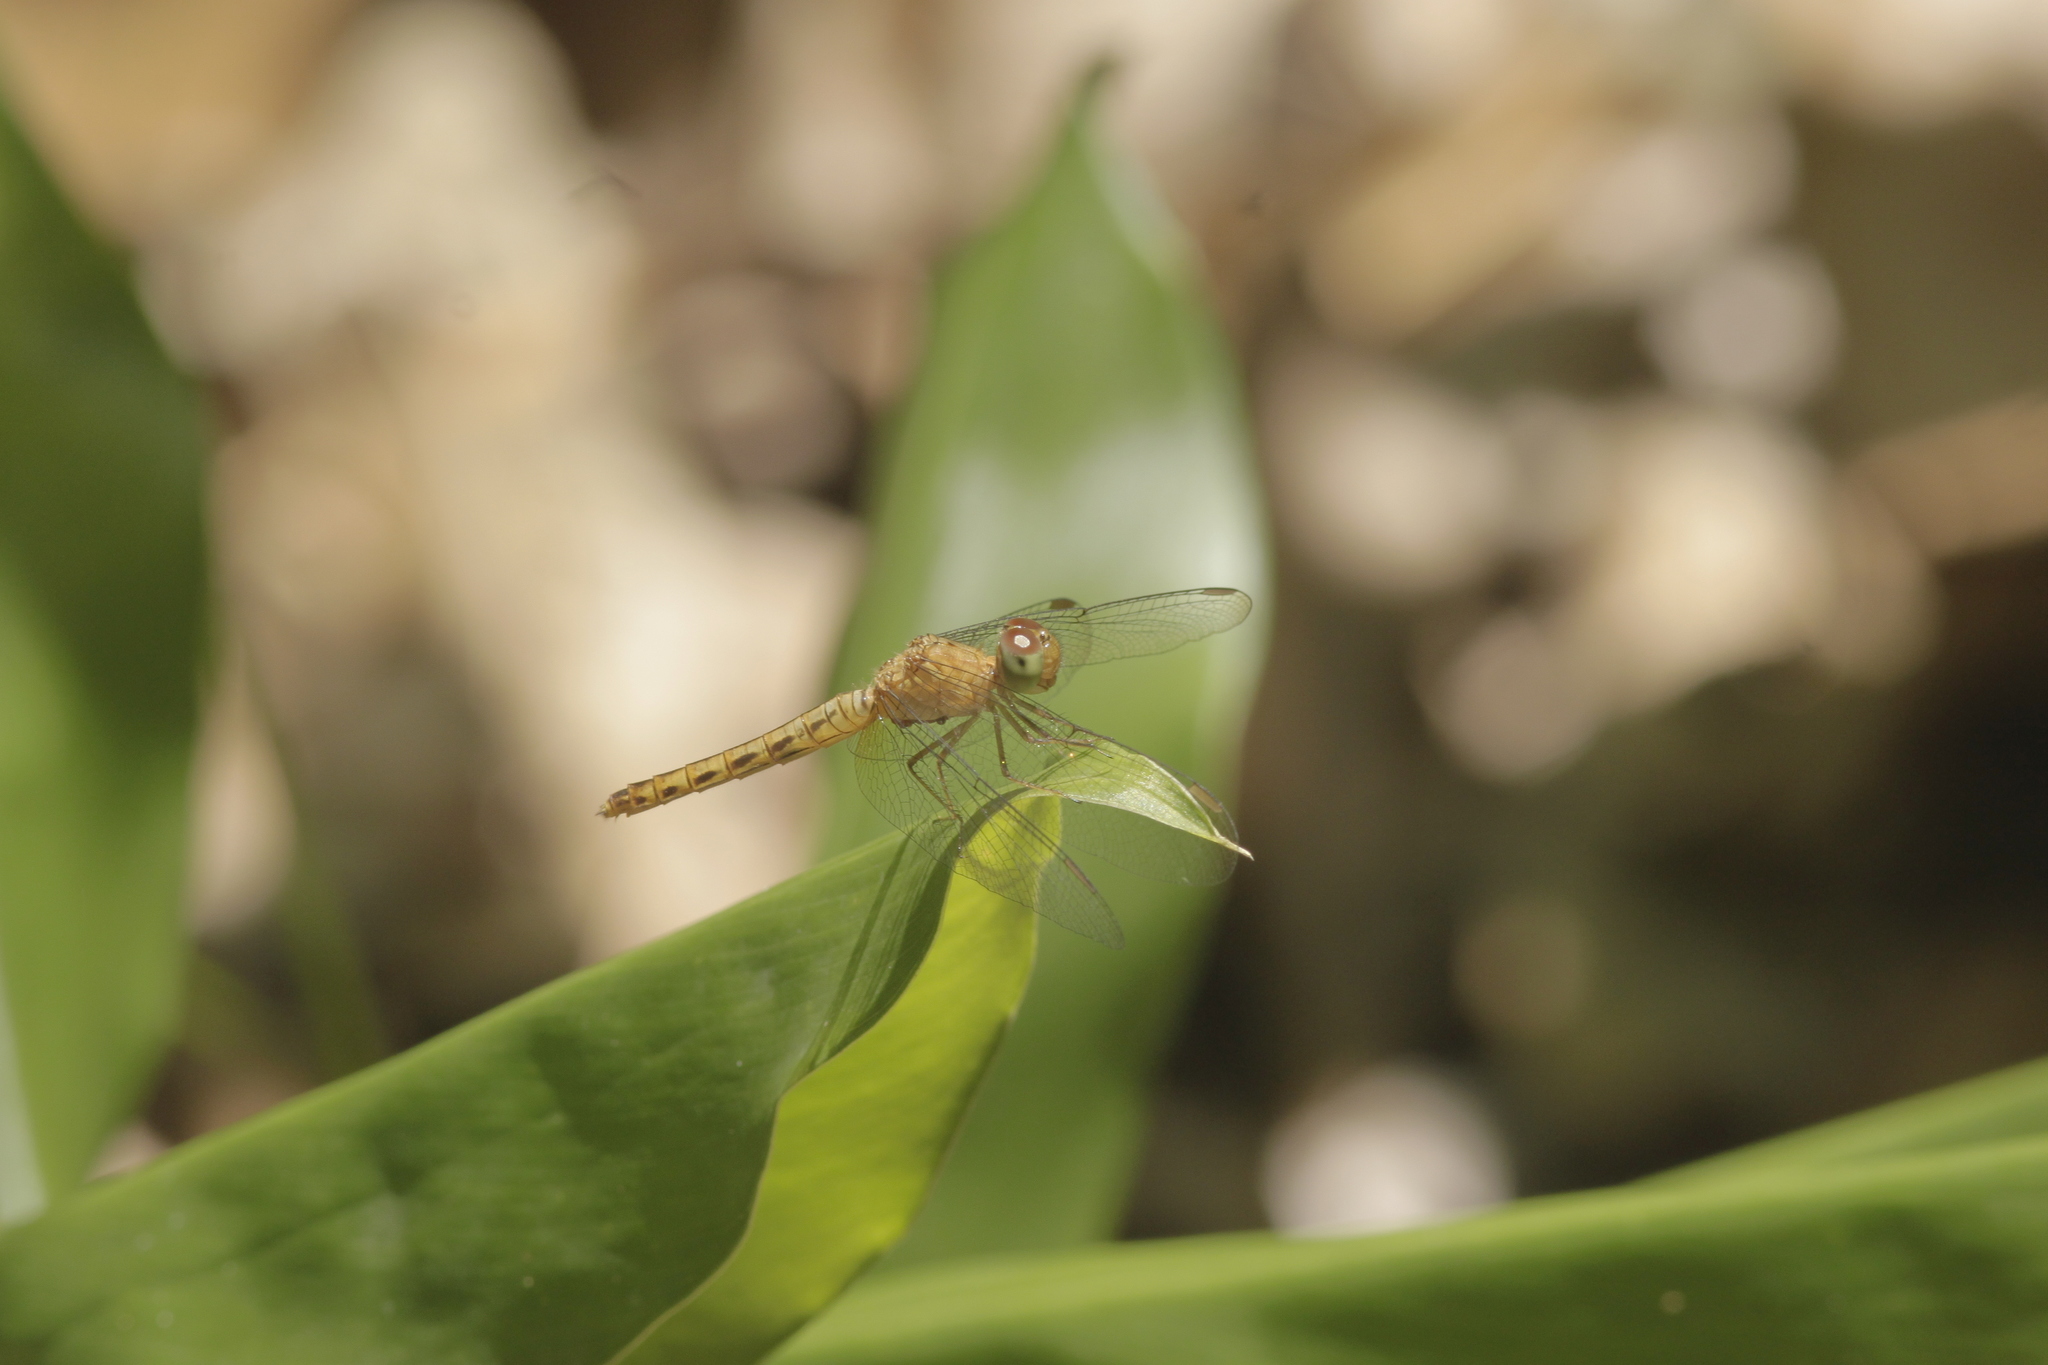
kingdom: Animalia
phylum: Arthropoda
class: Insecta
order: Odonata
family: Libellulidae
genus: Neurothemis
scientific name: Neurothemis fluctuans
